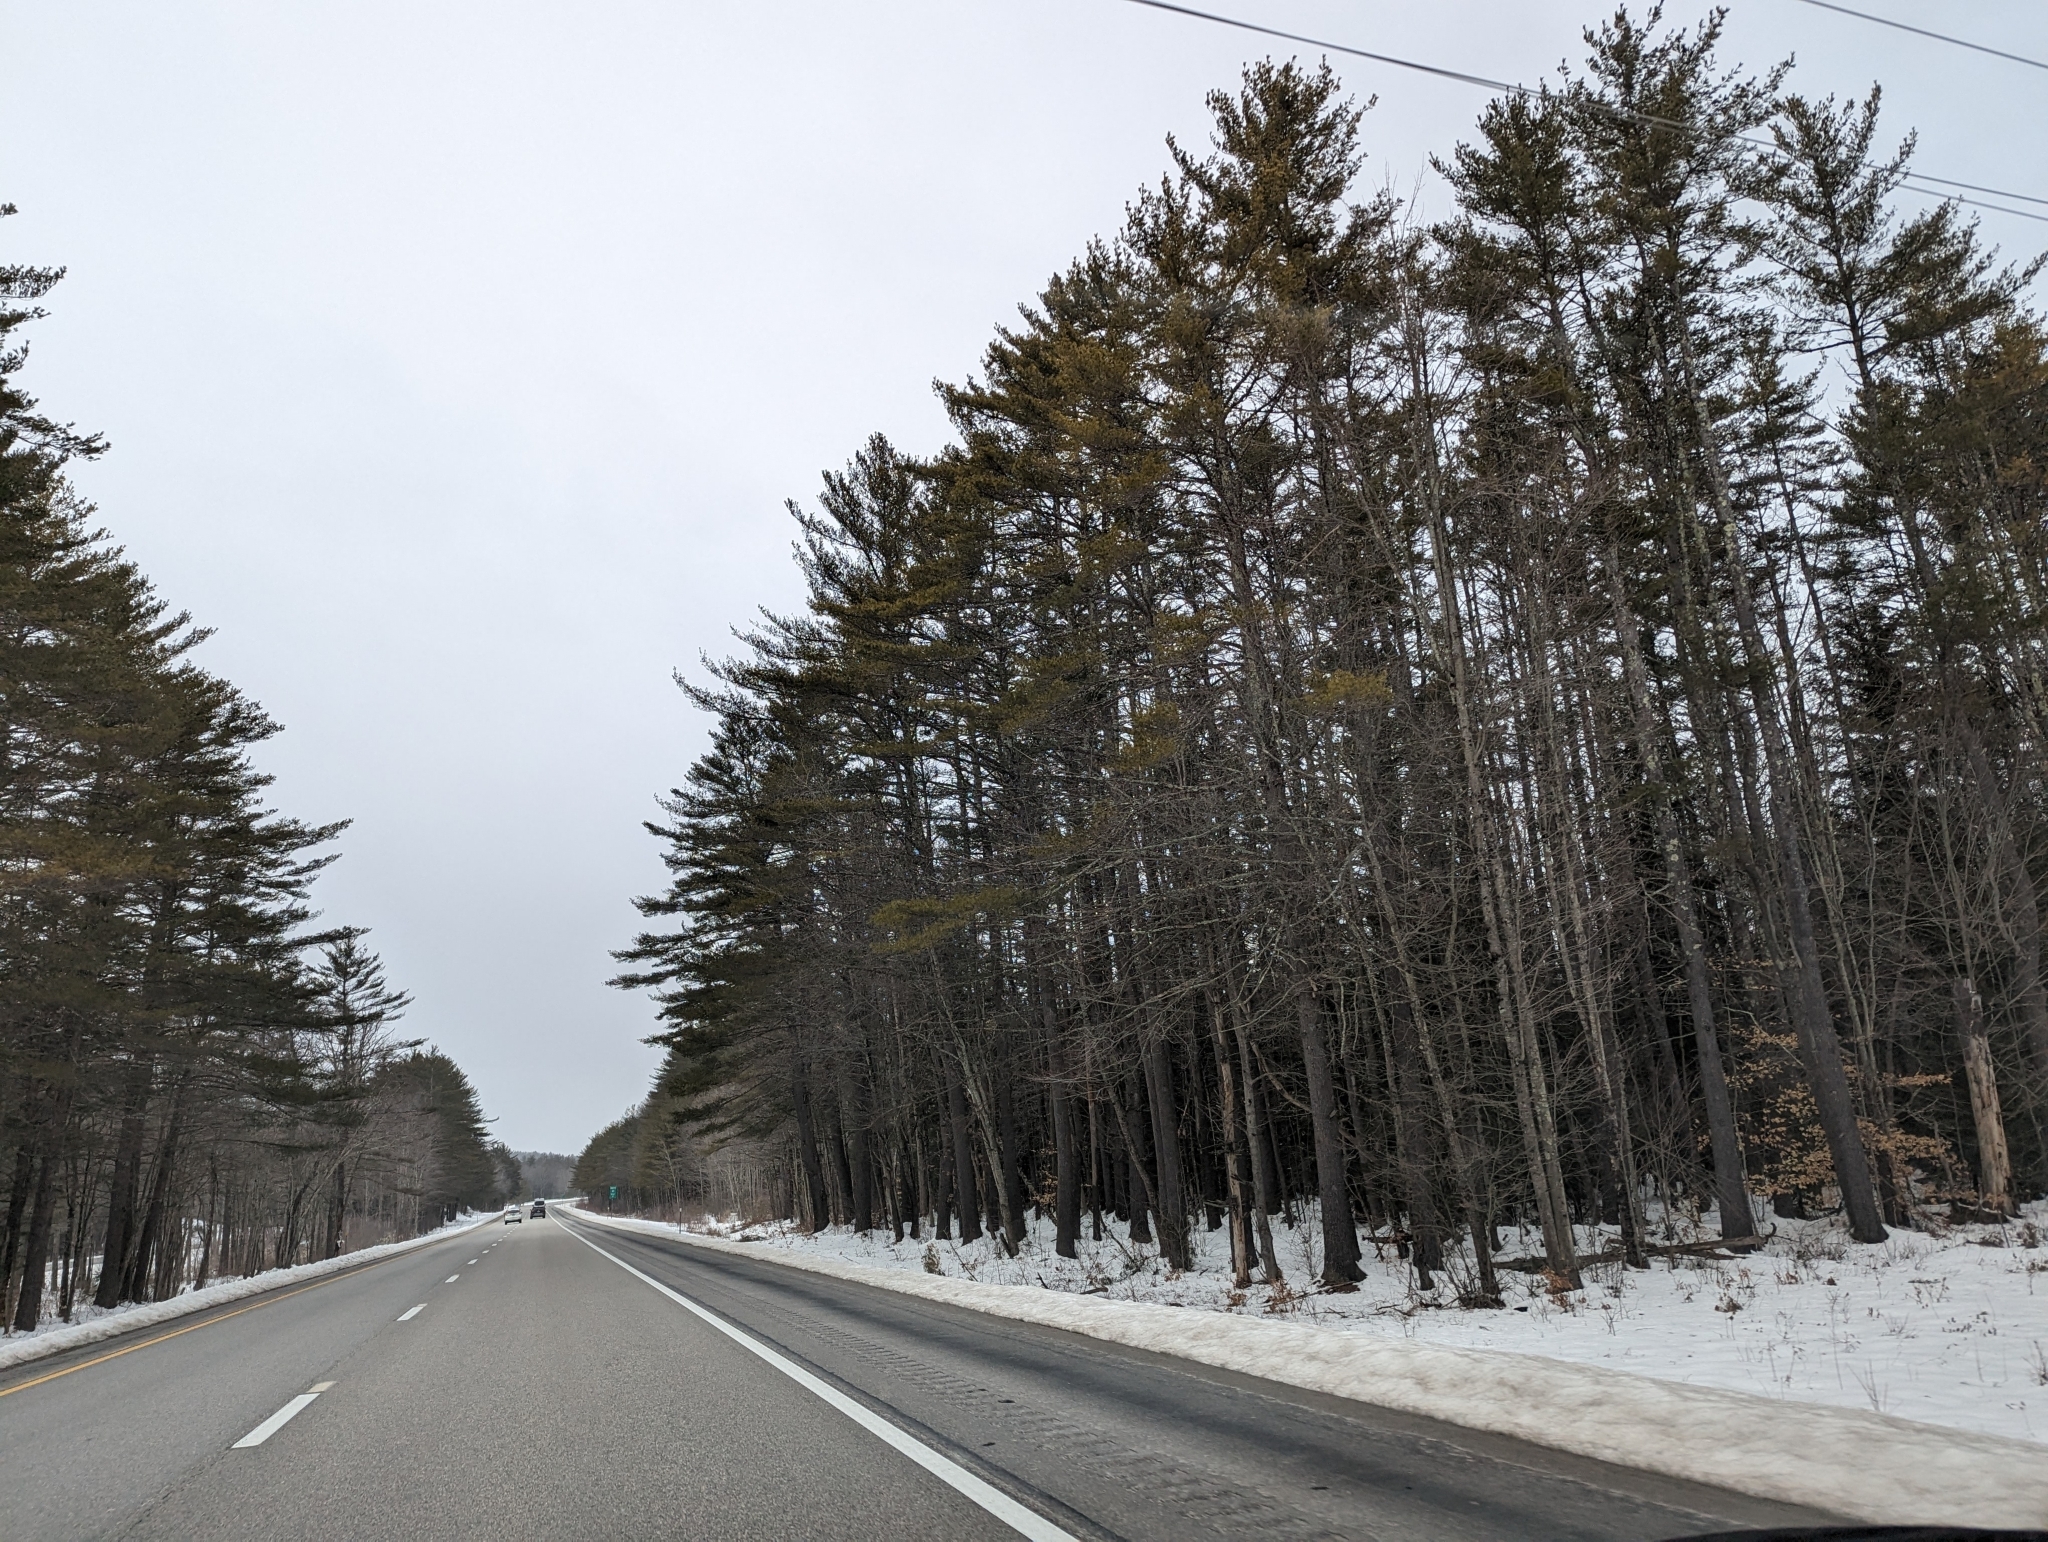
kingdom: Plantae
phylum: Tracheophyta
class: Pinopsida
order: Pinales
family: Pinaceae
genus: Pinus
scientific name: Pinus strobus
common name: Weymouth pine
